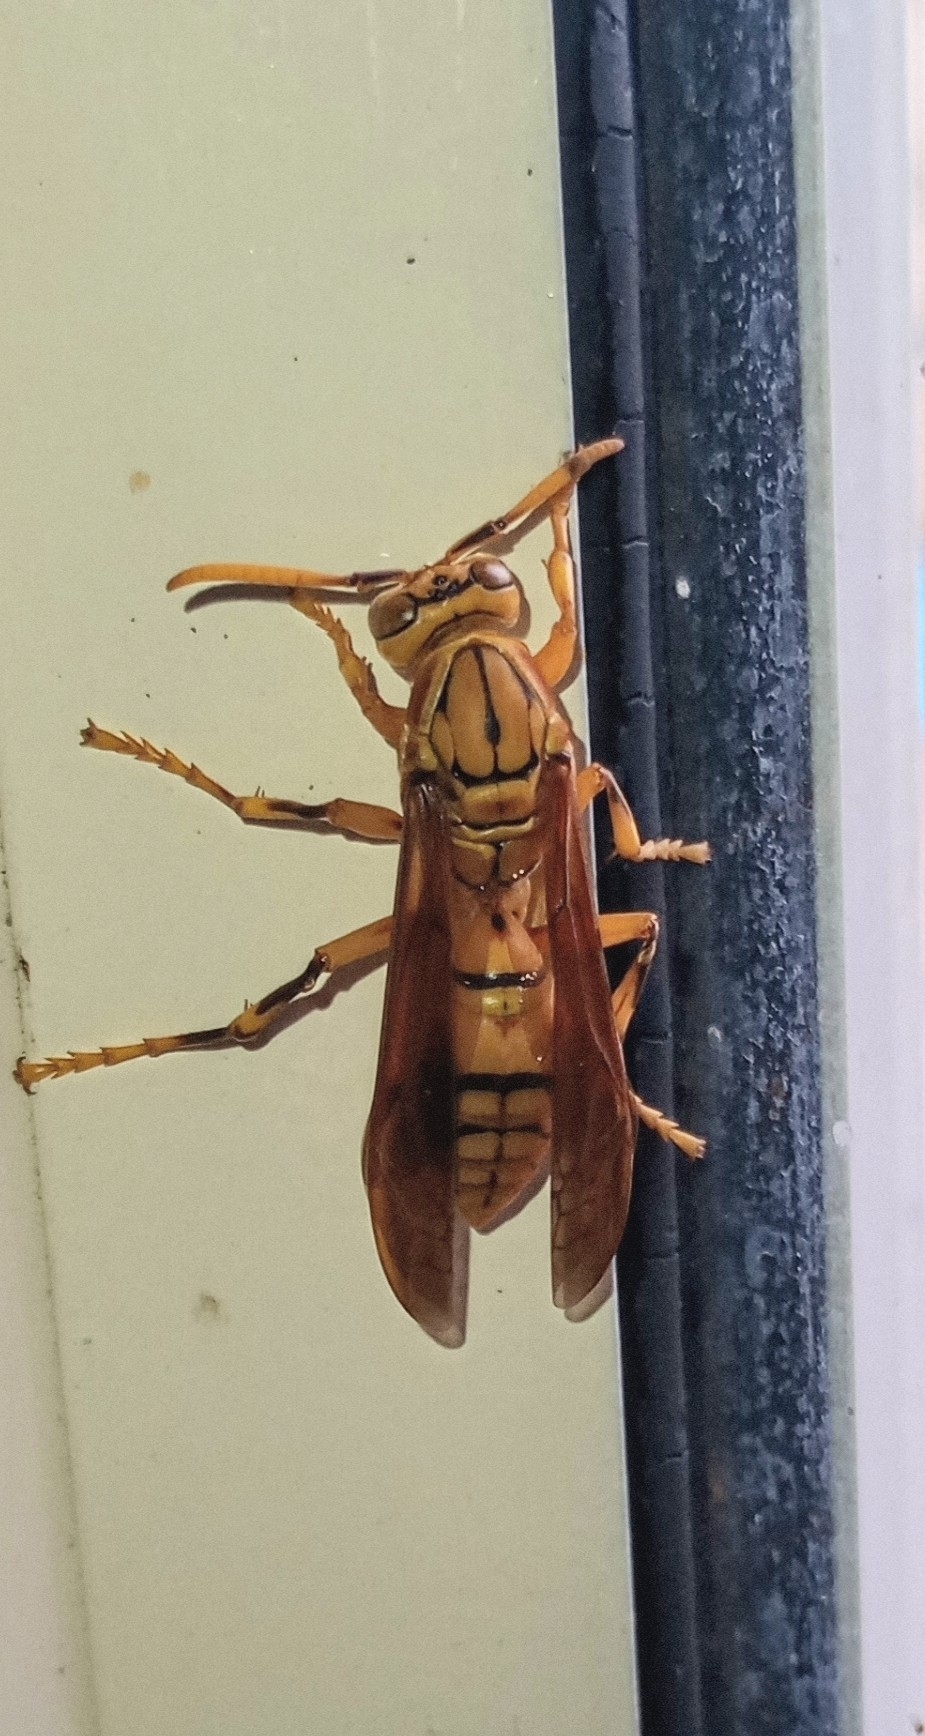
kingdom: Animalia
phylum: Arthropoda
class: Insecta
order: Hymenoptera
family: Eumenidae
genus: Polistes
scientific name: Polistes olivaceus
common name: Paper wasp
